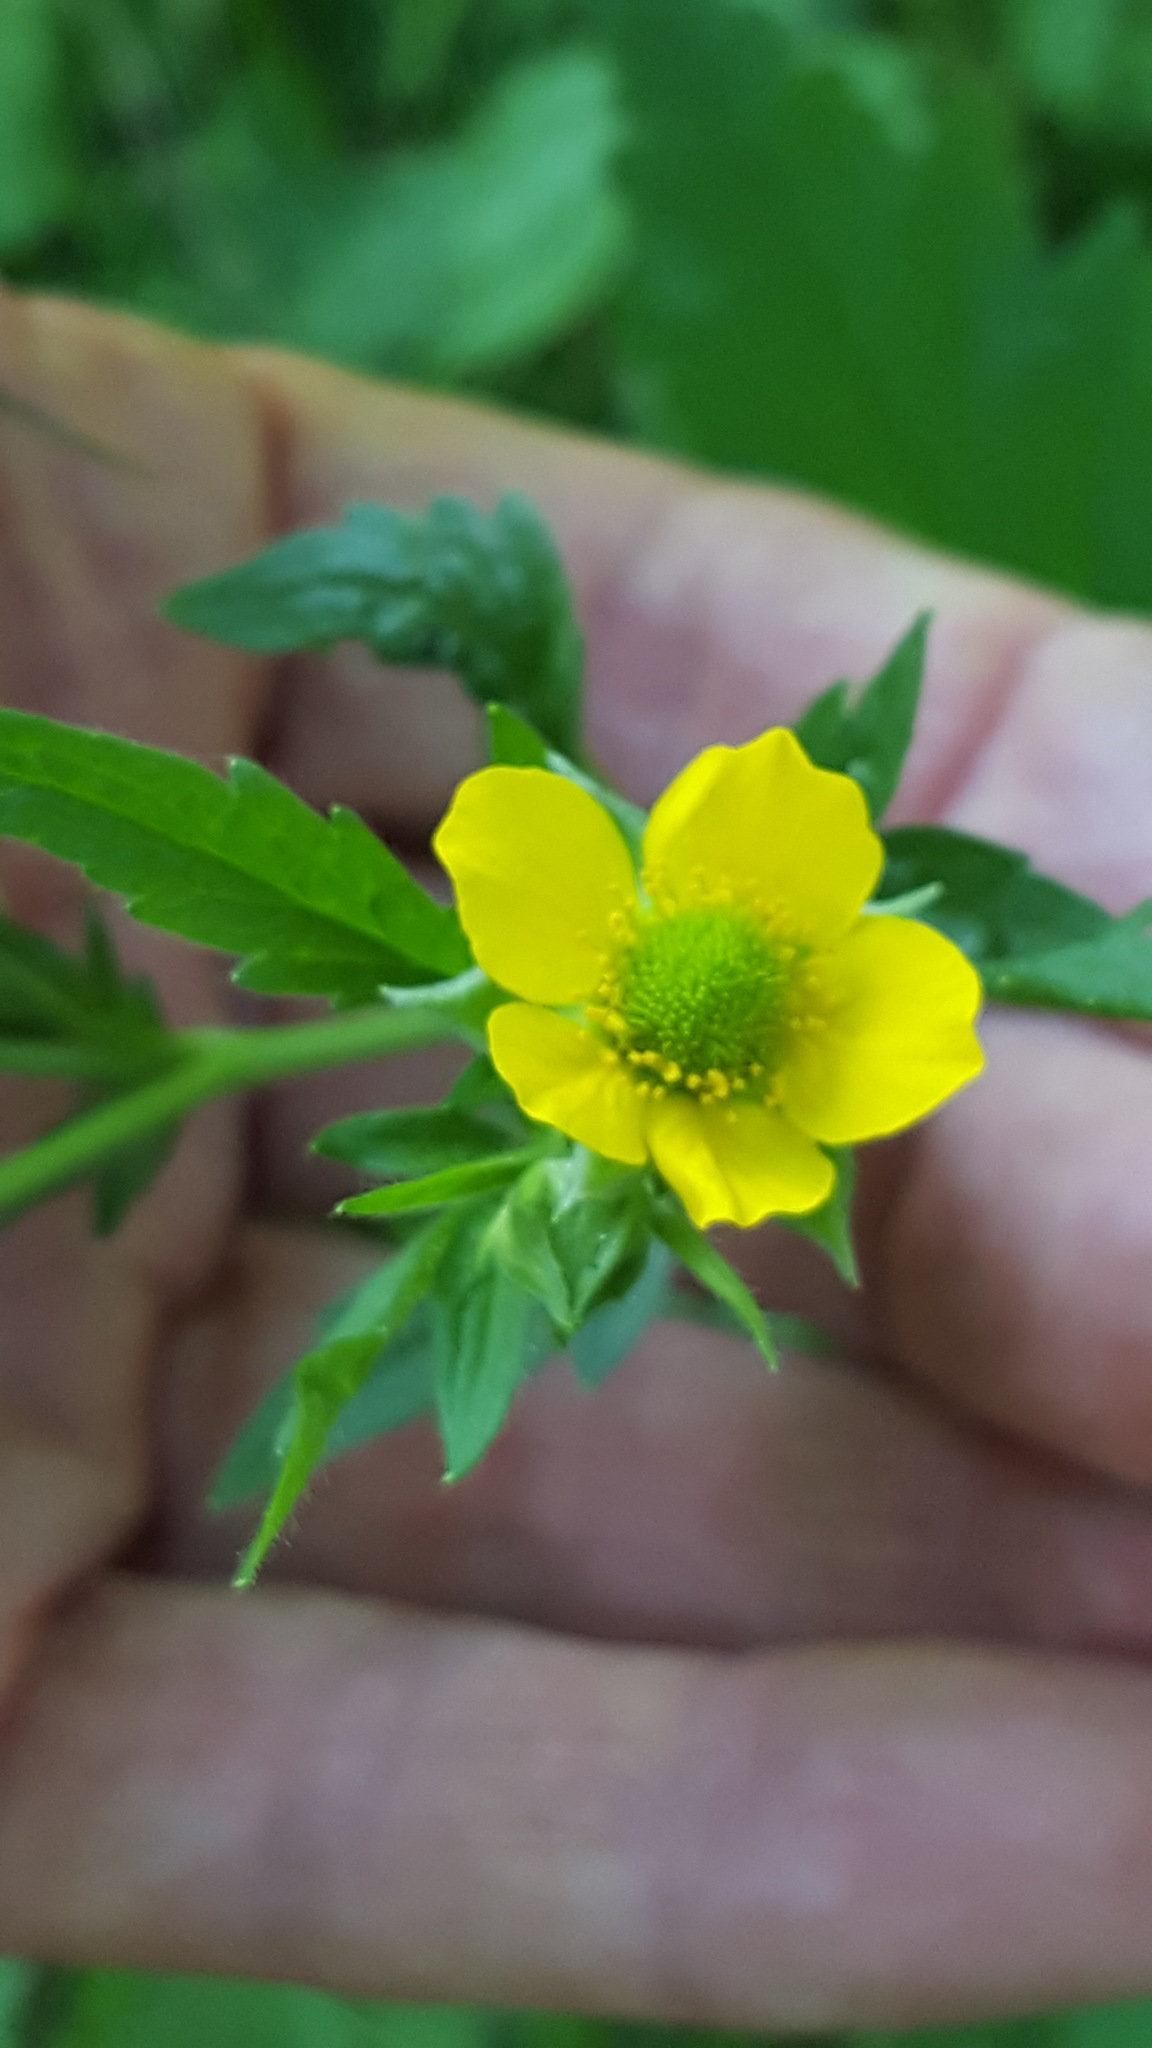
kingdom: Plantae
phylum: Tracheophyta
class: Magnoliopsida
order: Rosales
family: Rosaceae
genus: Geum
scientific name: Geum aleppicum
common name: Yellow avens
